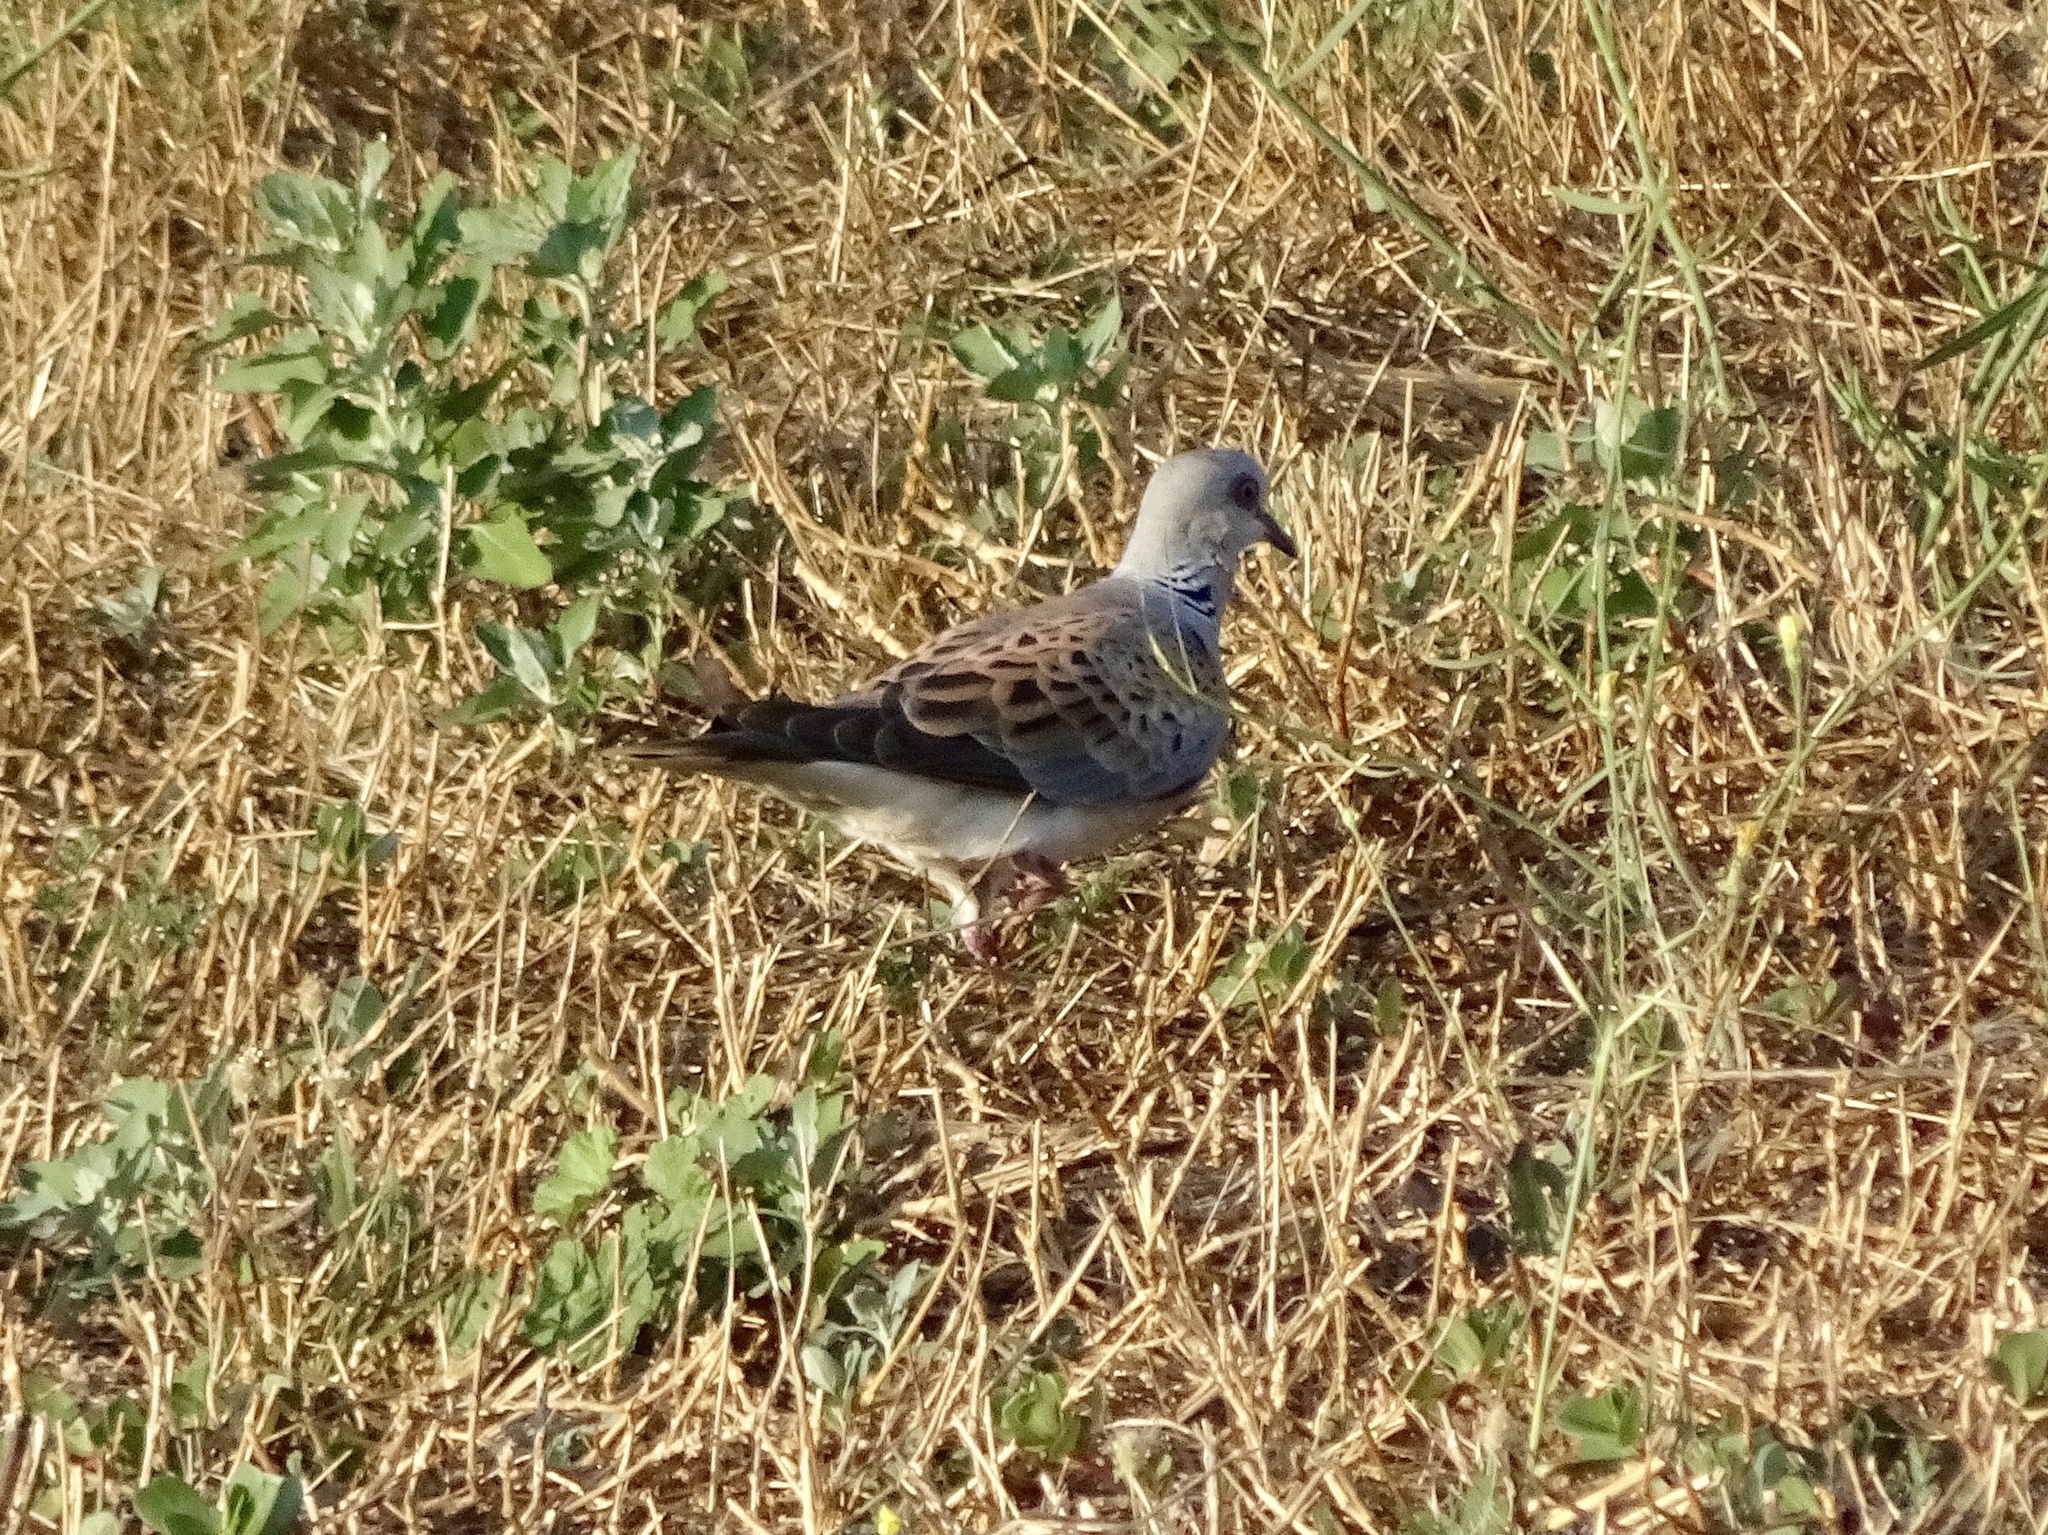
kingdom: Animalia
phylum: Chordata
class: Aves
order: Columbiformes
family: Columbidae
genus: Streptopelia
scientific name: Streptopelia turtur
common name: European turtle dove
